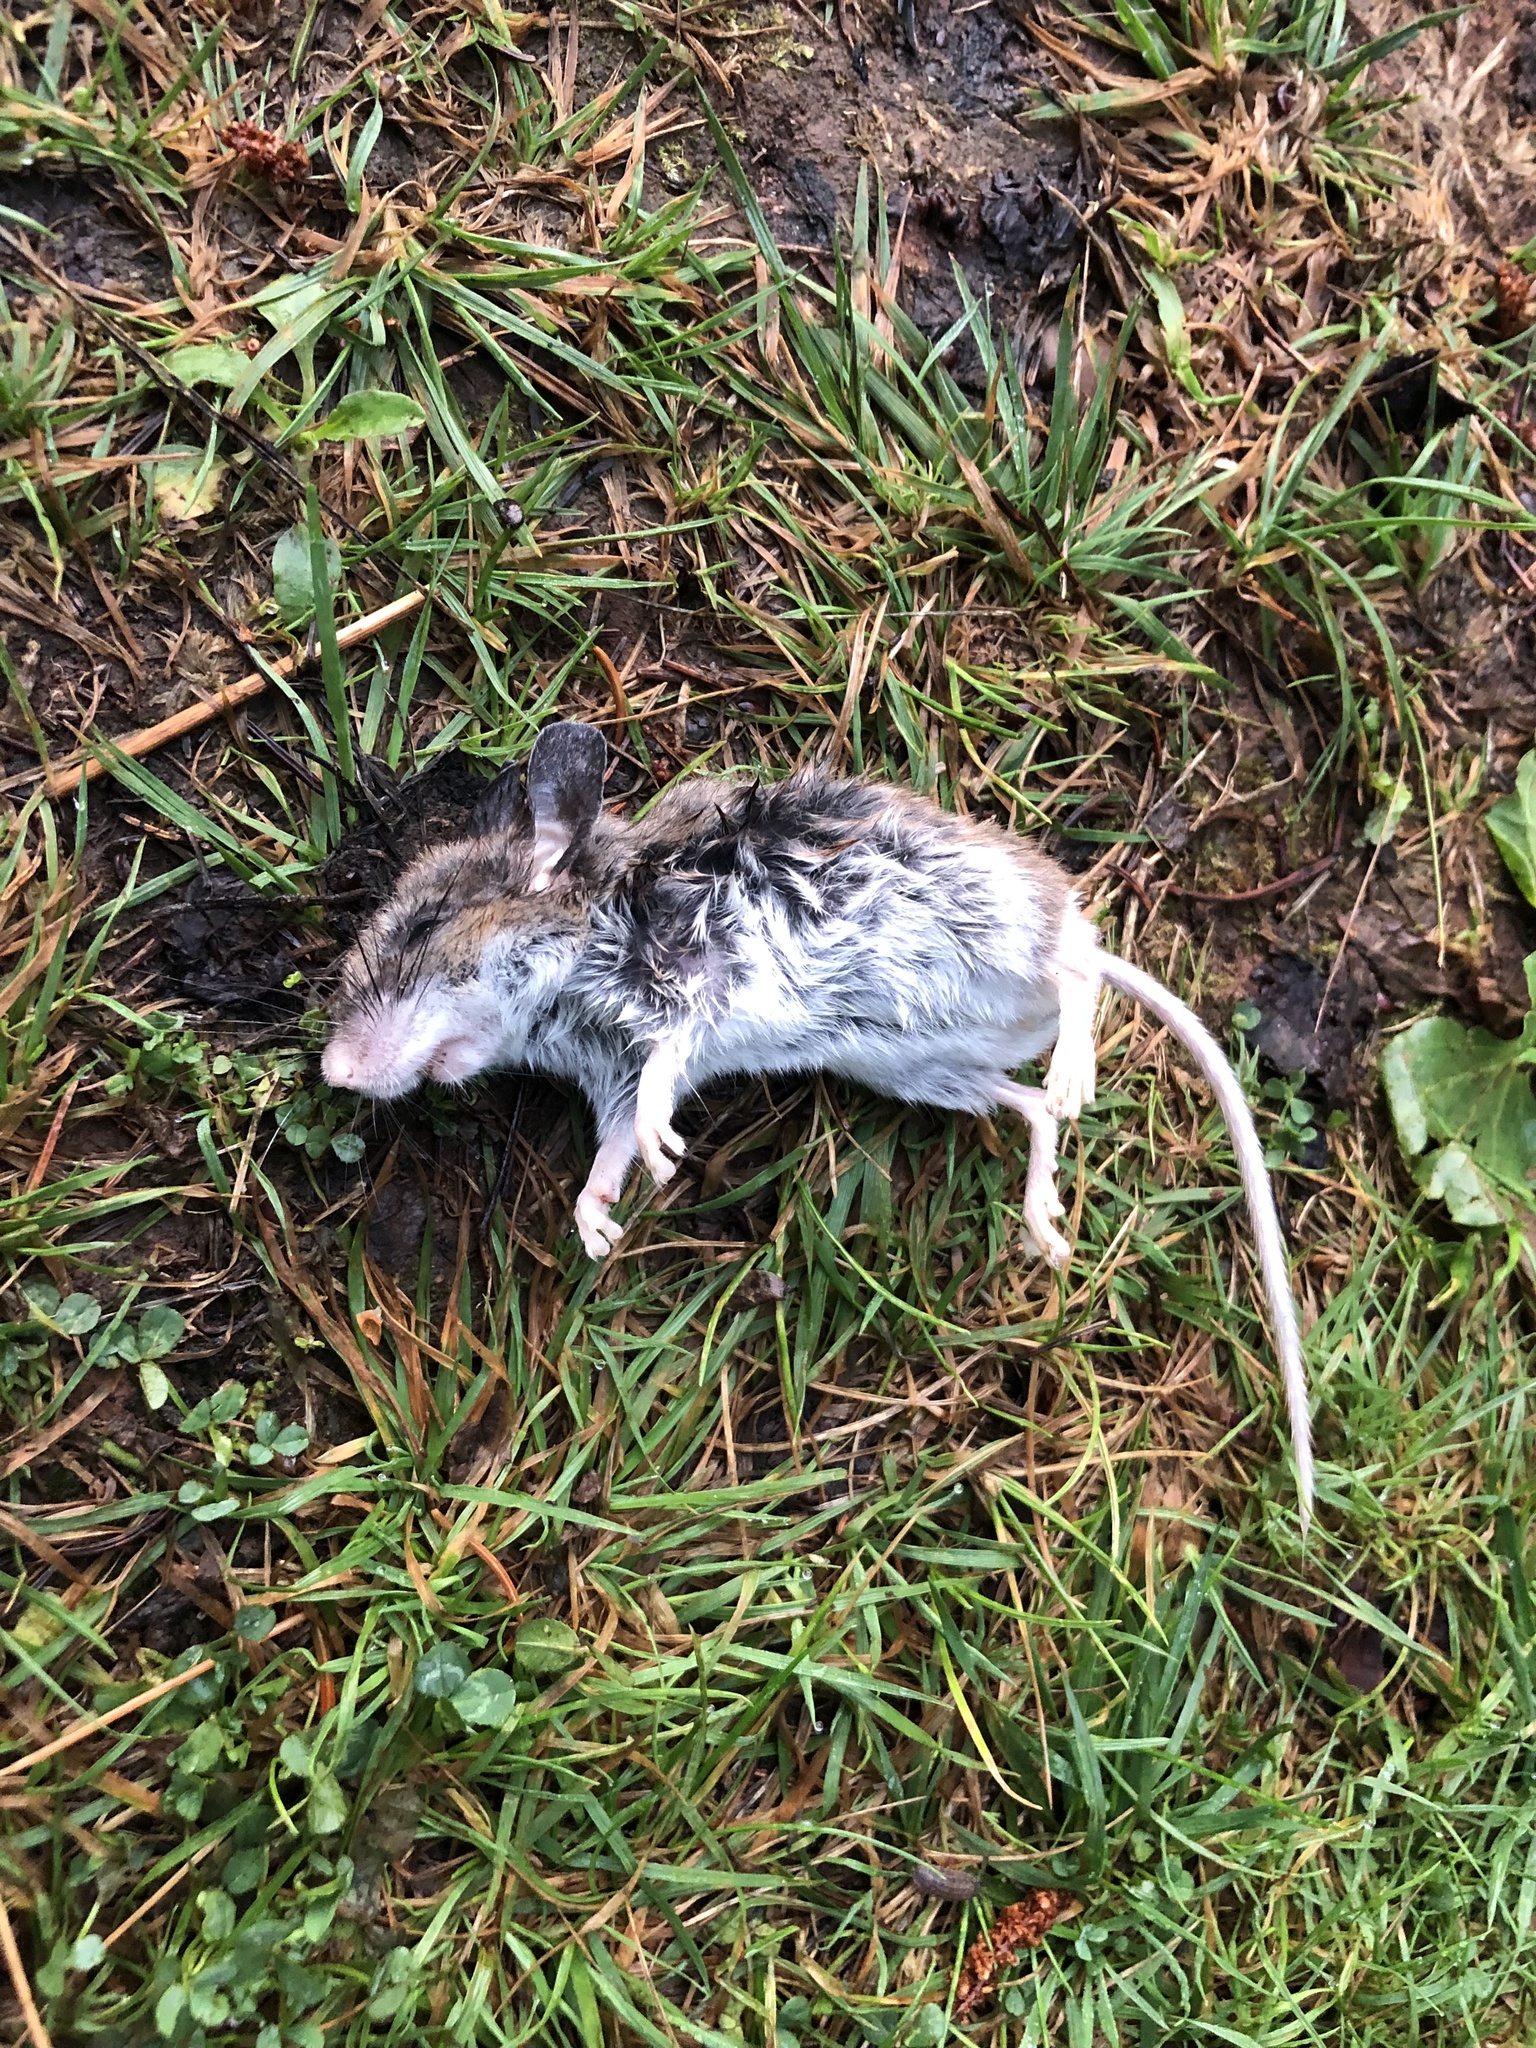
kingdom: Animalia
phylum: Chordata
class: Mammalia
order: Rodentia
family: Cricetidae
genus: Peromyscus
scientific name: Peromyscus maniculatus
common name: Deer mouse
